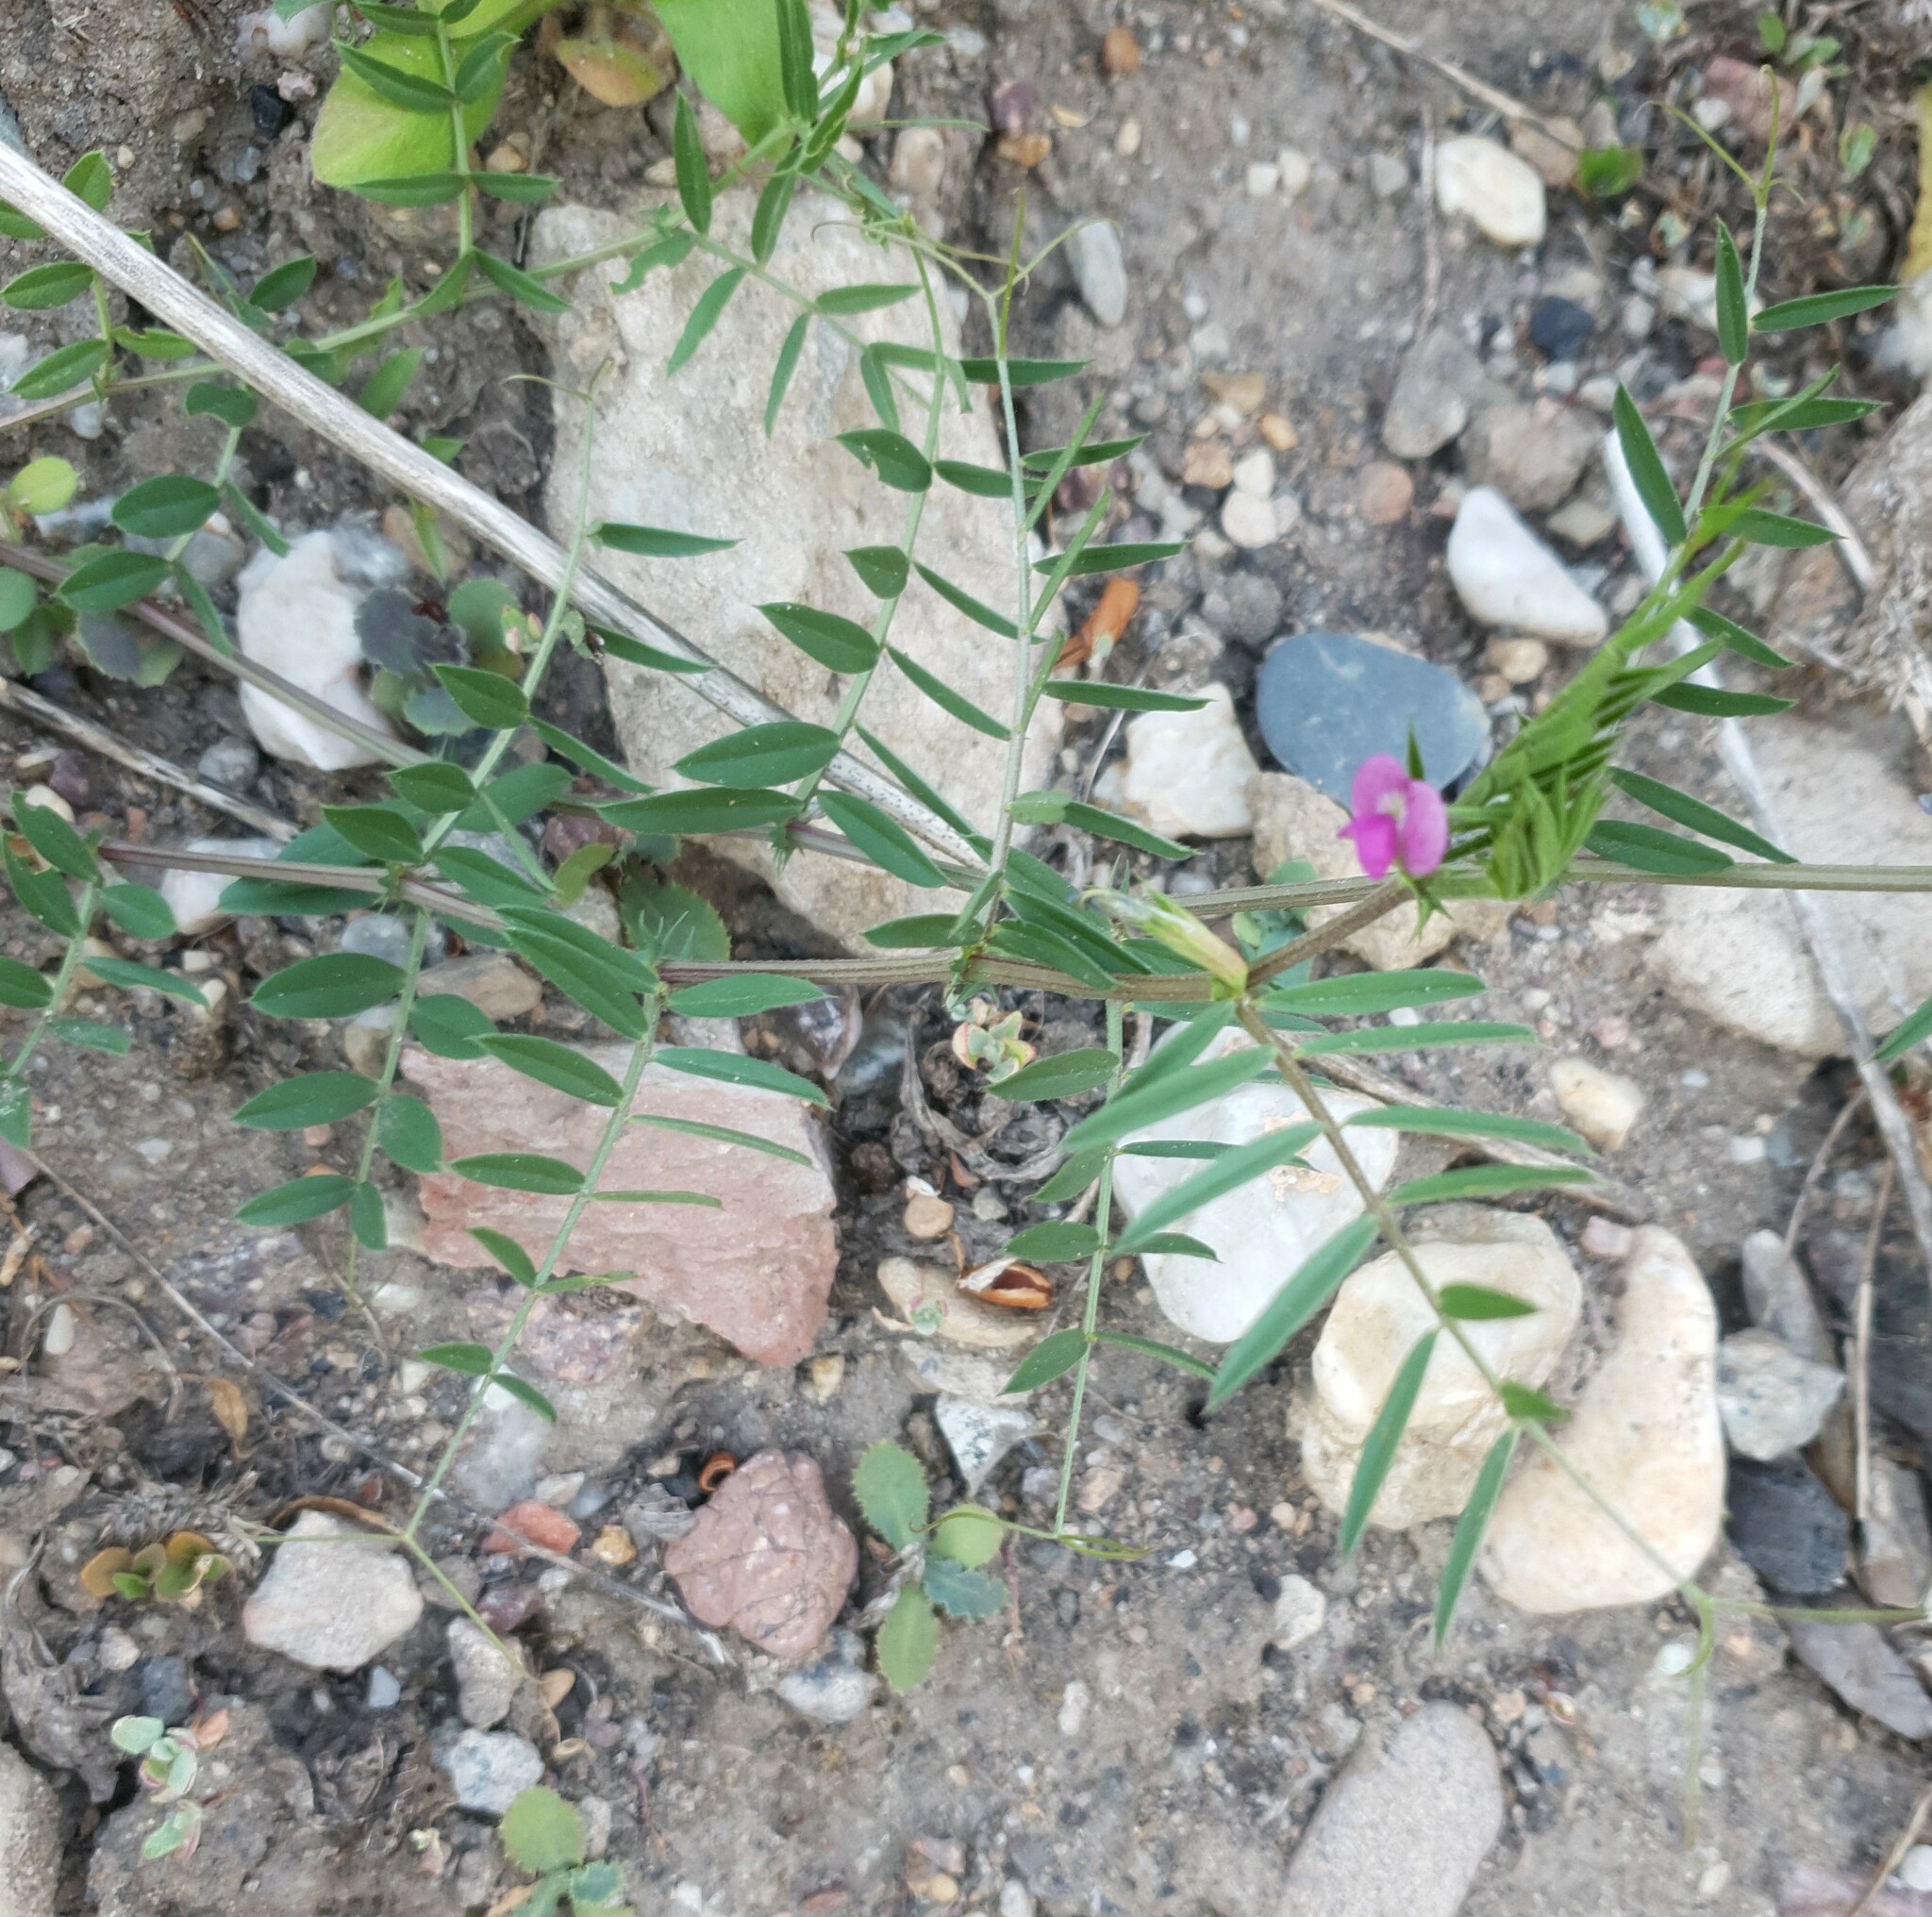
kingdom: Plantae
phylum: Tracheophyta
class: Magnoliopsida
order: Fabales
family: Fabaceae
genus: Vicia
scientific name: Vicia sativa
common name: Garden vetch
